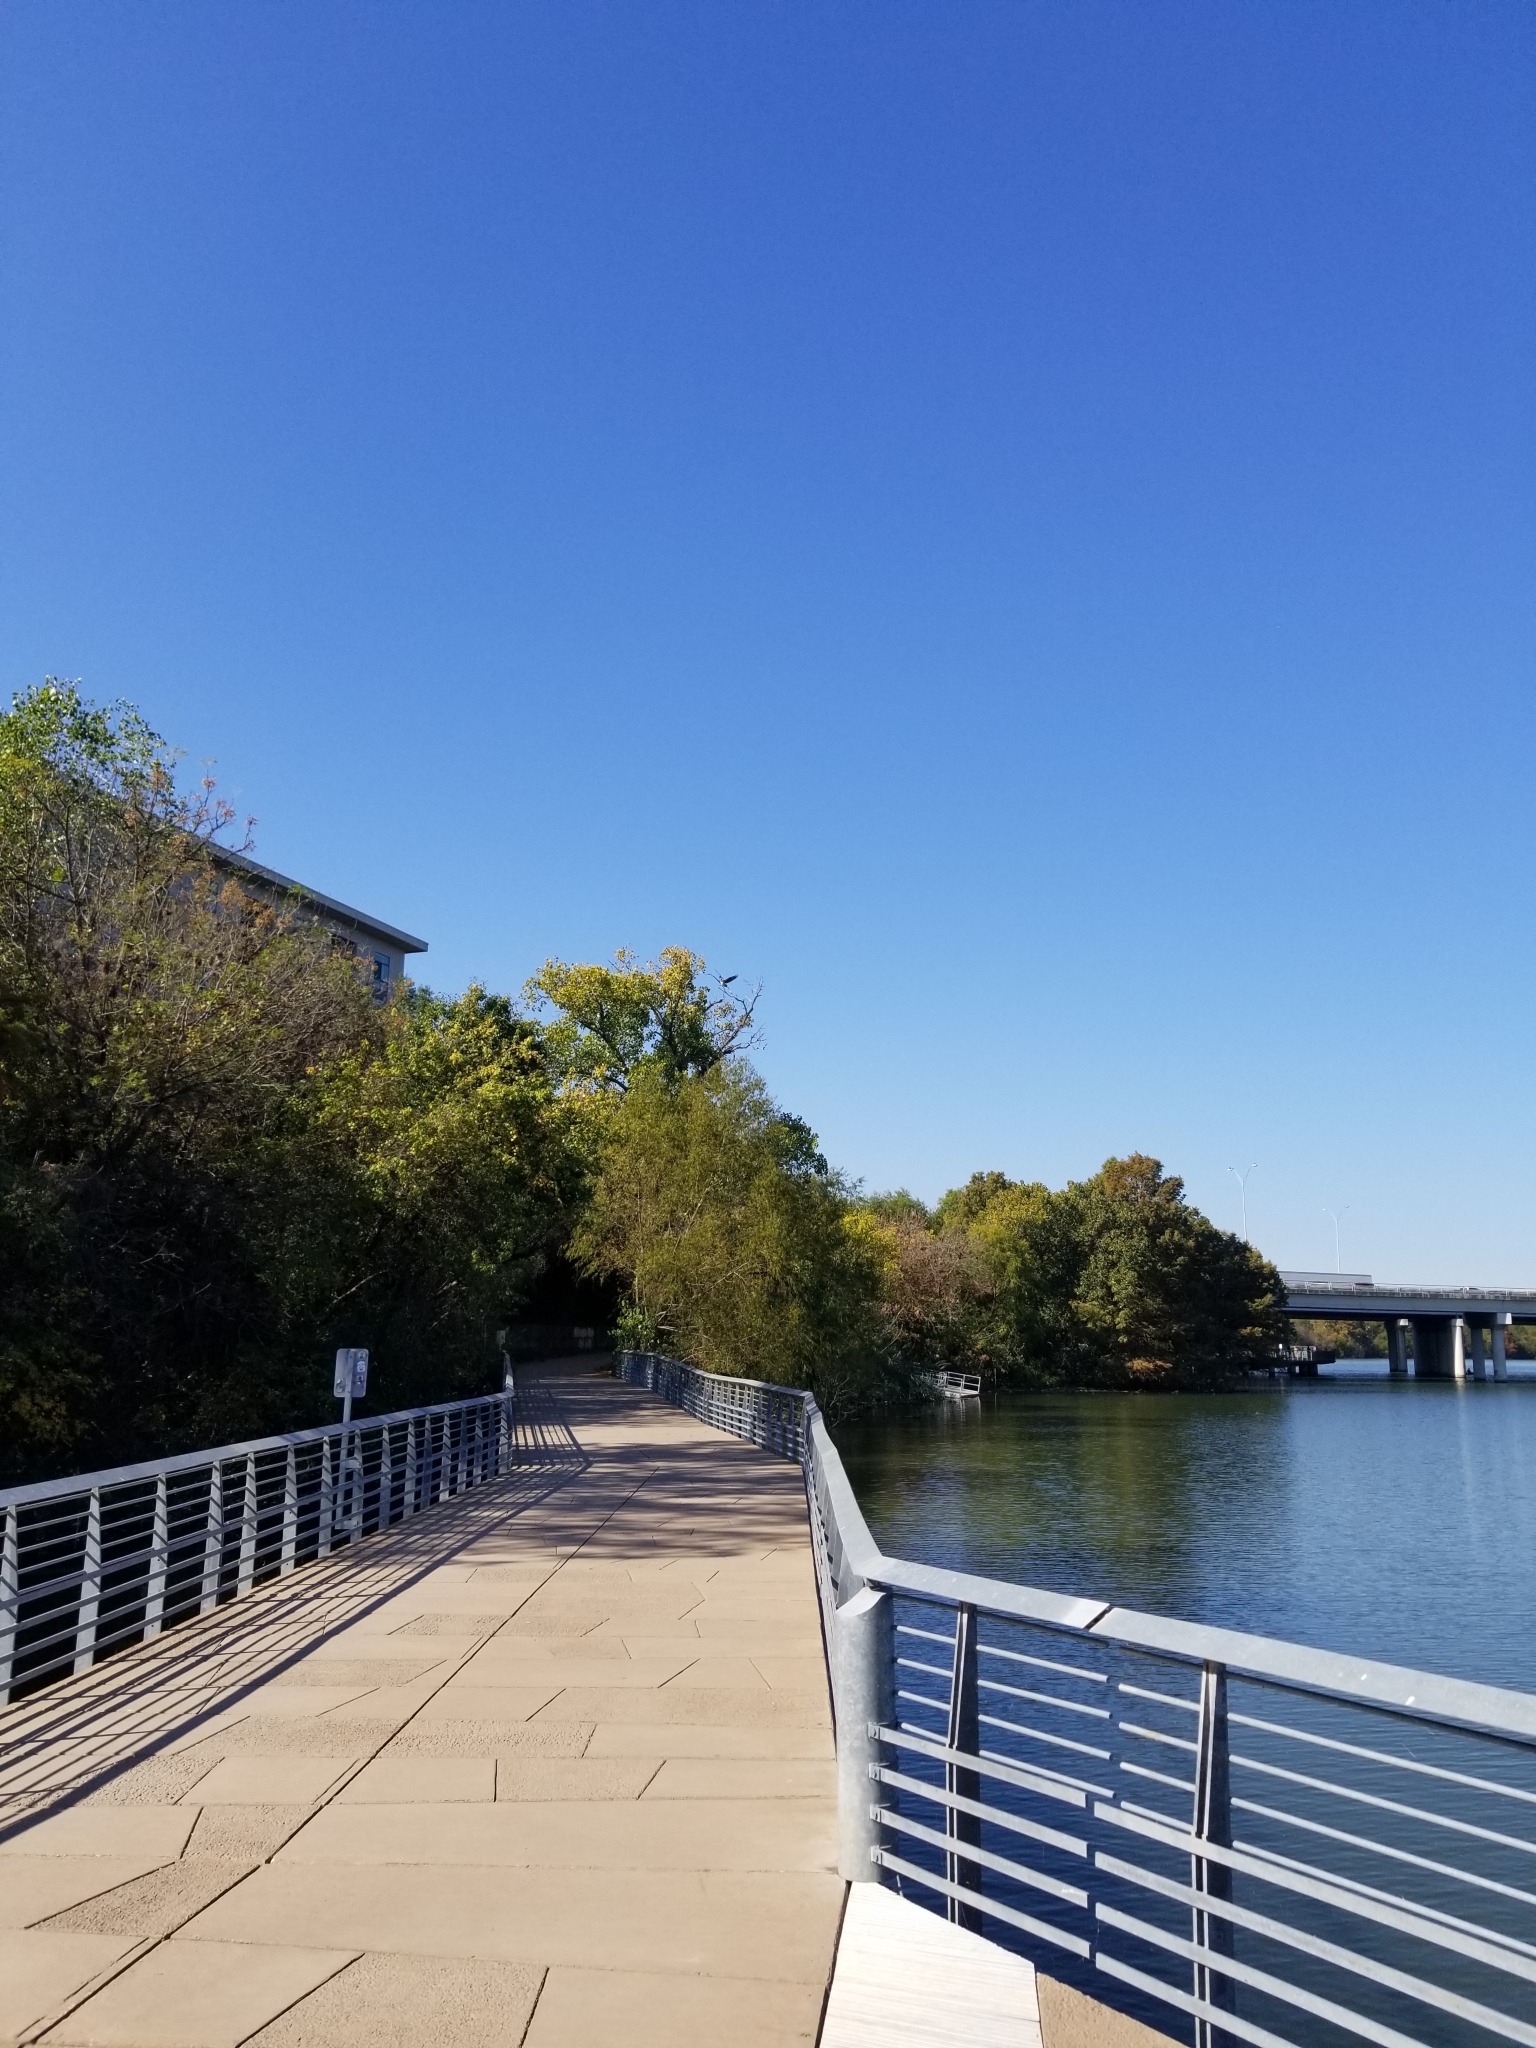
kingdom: Animalia
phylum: Chordata
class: Aves
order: Accipitriformes
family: Pandionidae
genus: Pandion
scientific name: Pandion haliaetus
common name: Osprey
